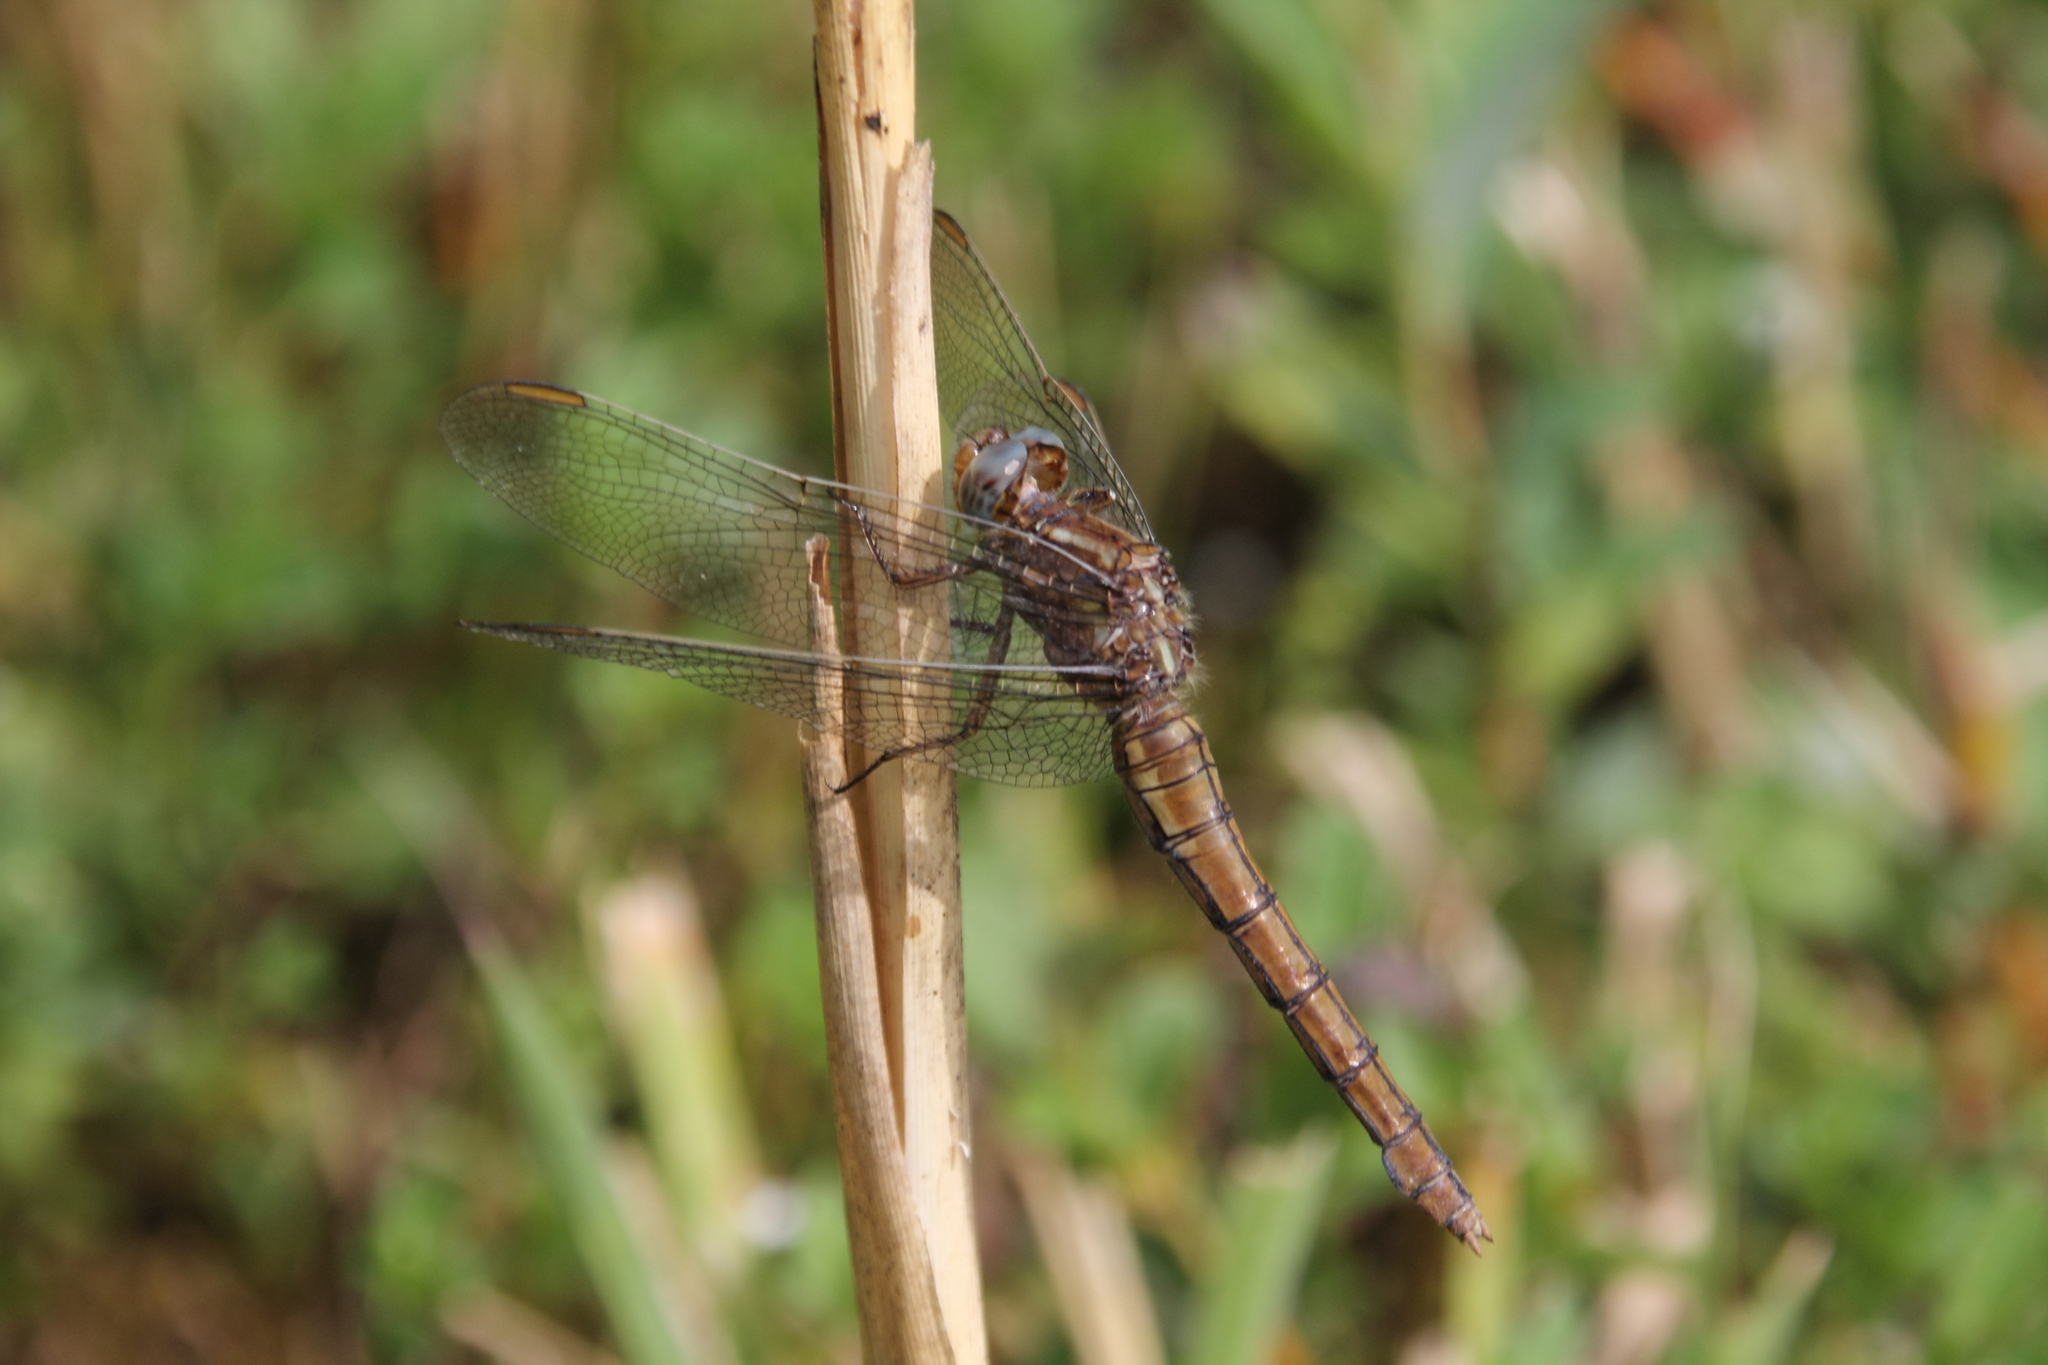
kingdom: Animalia
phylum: Arthropoda
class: Insecta
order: Odonata
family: Libellulidae
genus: Orthetrum
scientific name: Orthetrum coerulescens
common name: Keeled skimmer
